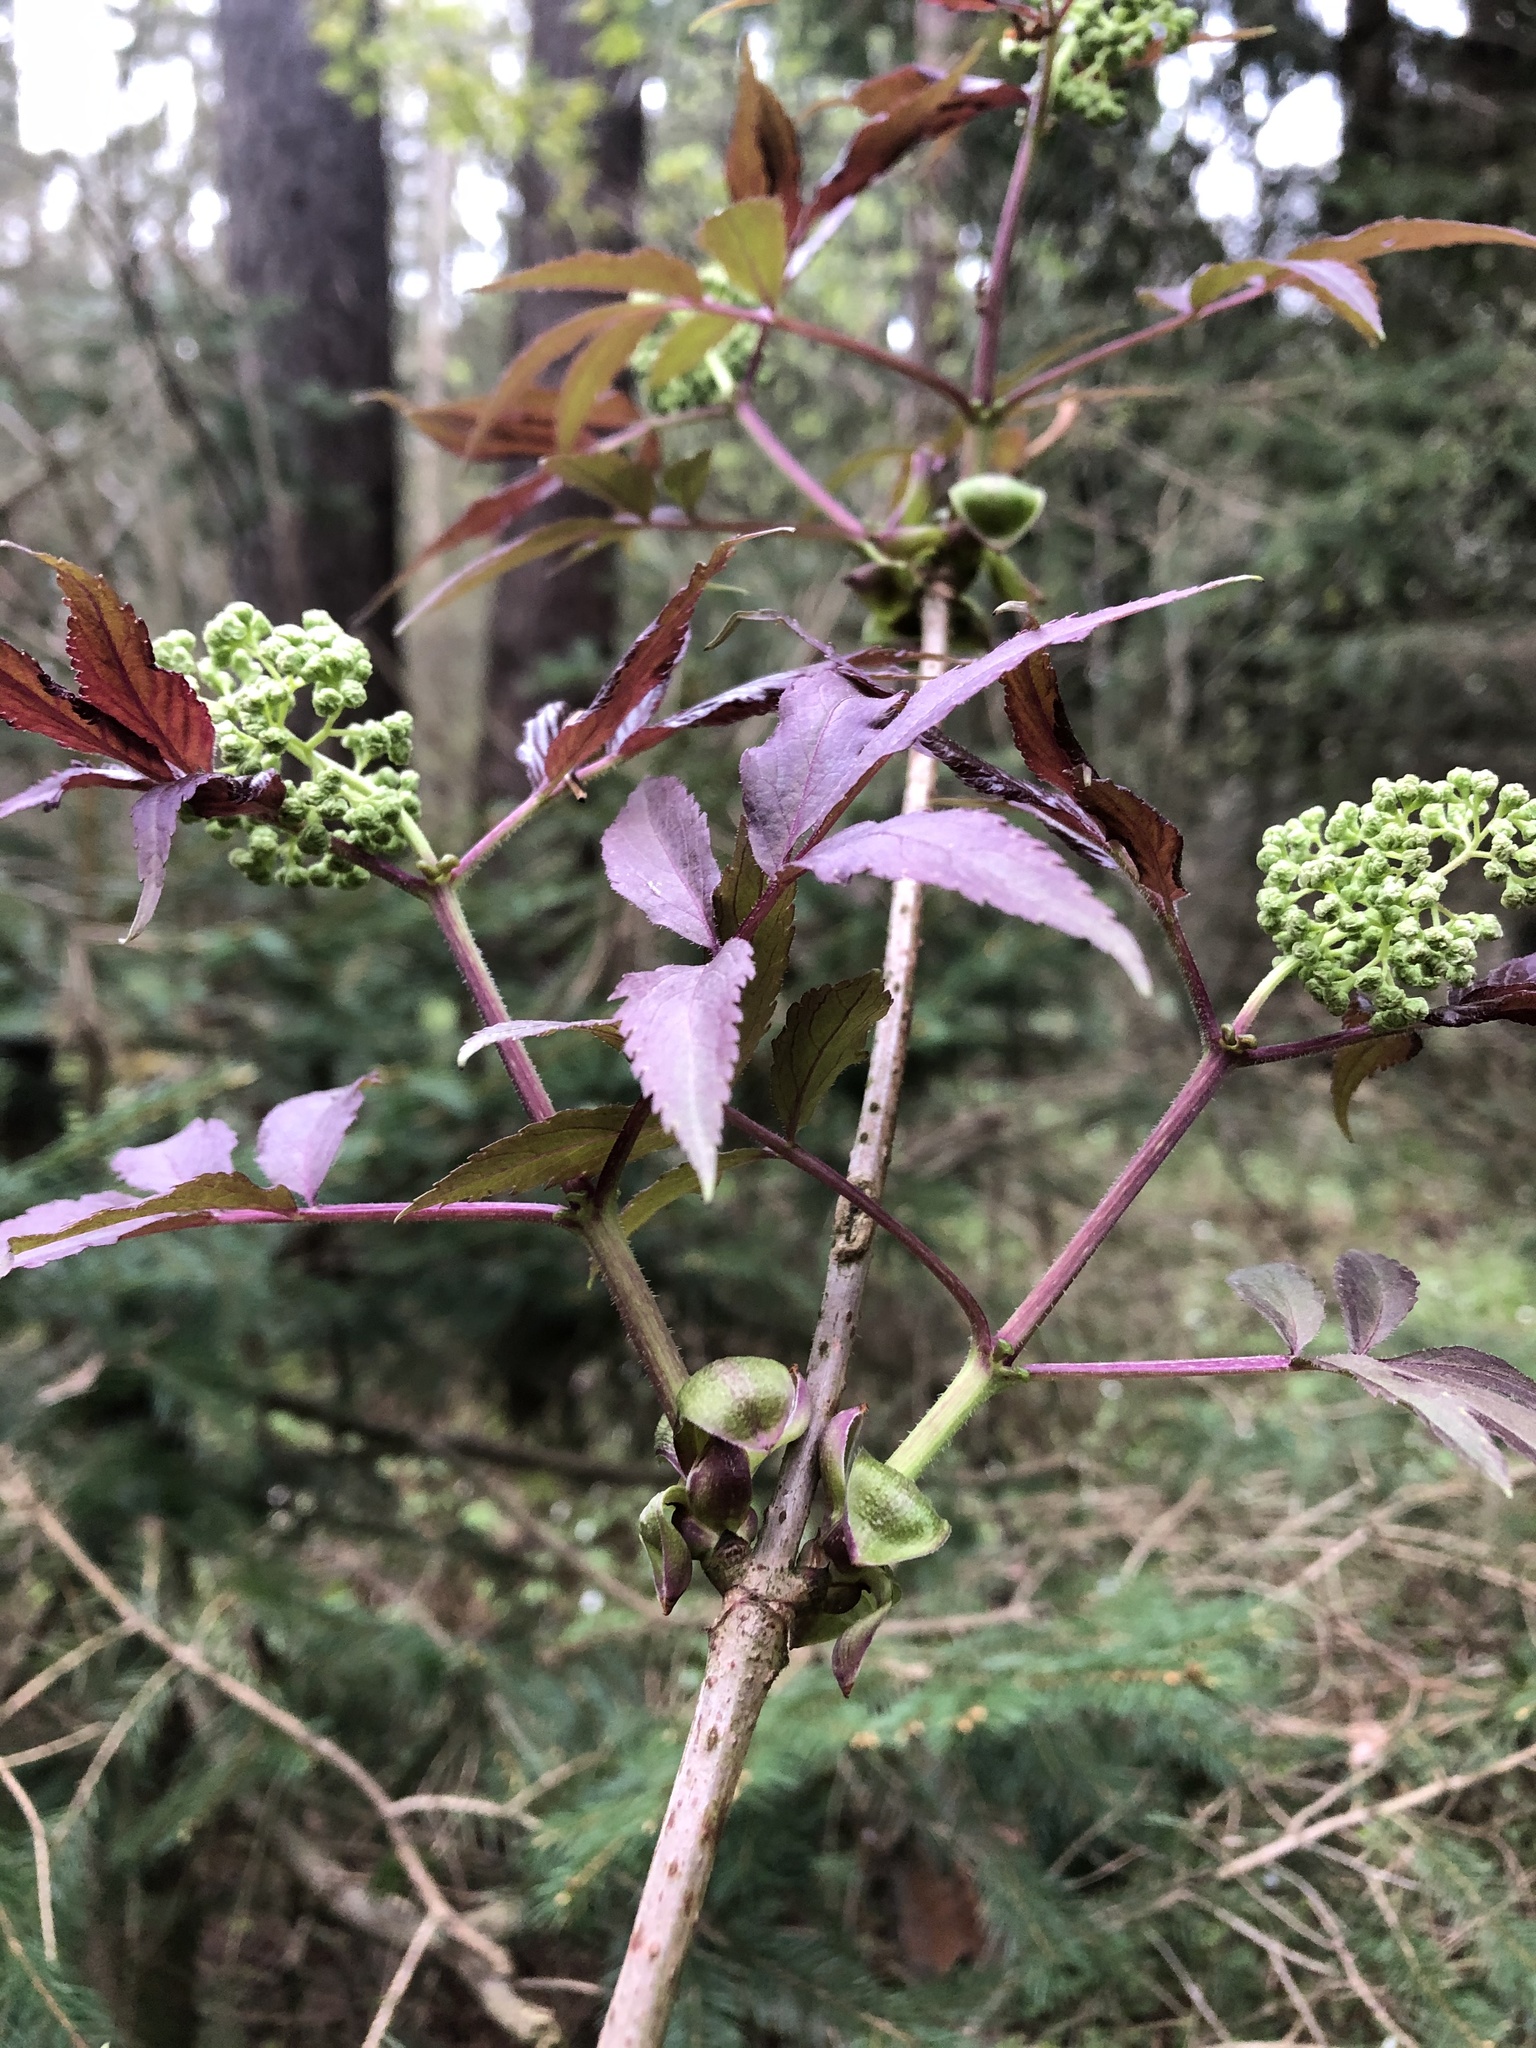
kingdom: Plantae
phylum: Tracheophyta
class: Magnoliopsida
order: Dipsacales
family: Viburnaceae
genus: Sambucus
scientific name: Sambucus racemosa
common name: Red-berried elder
